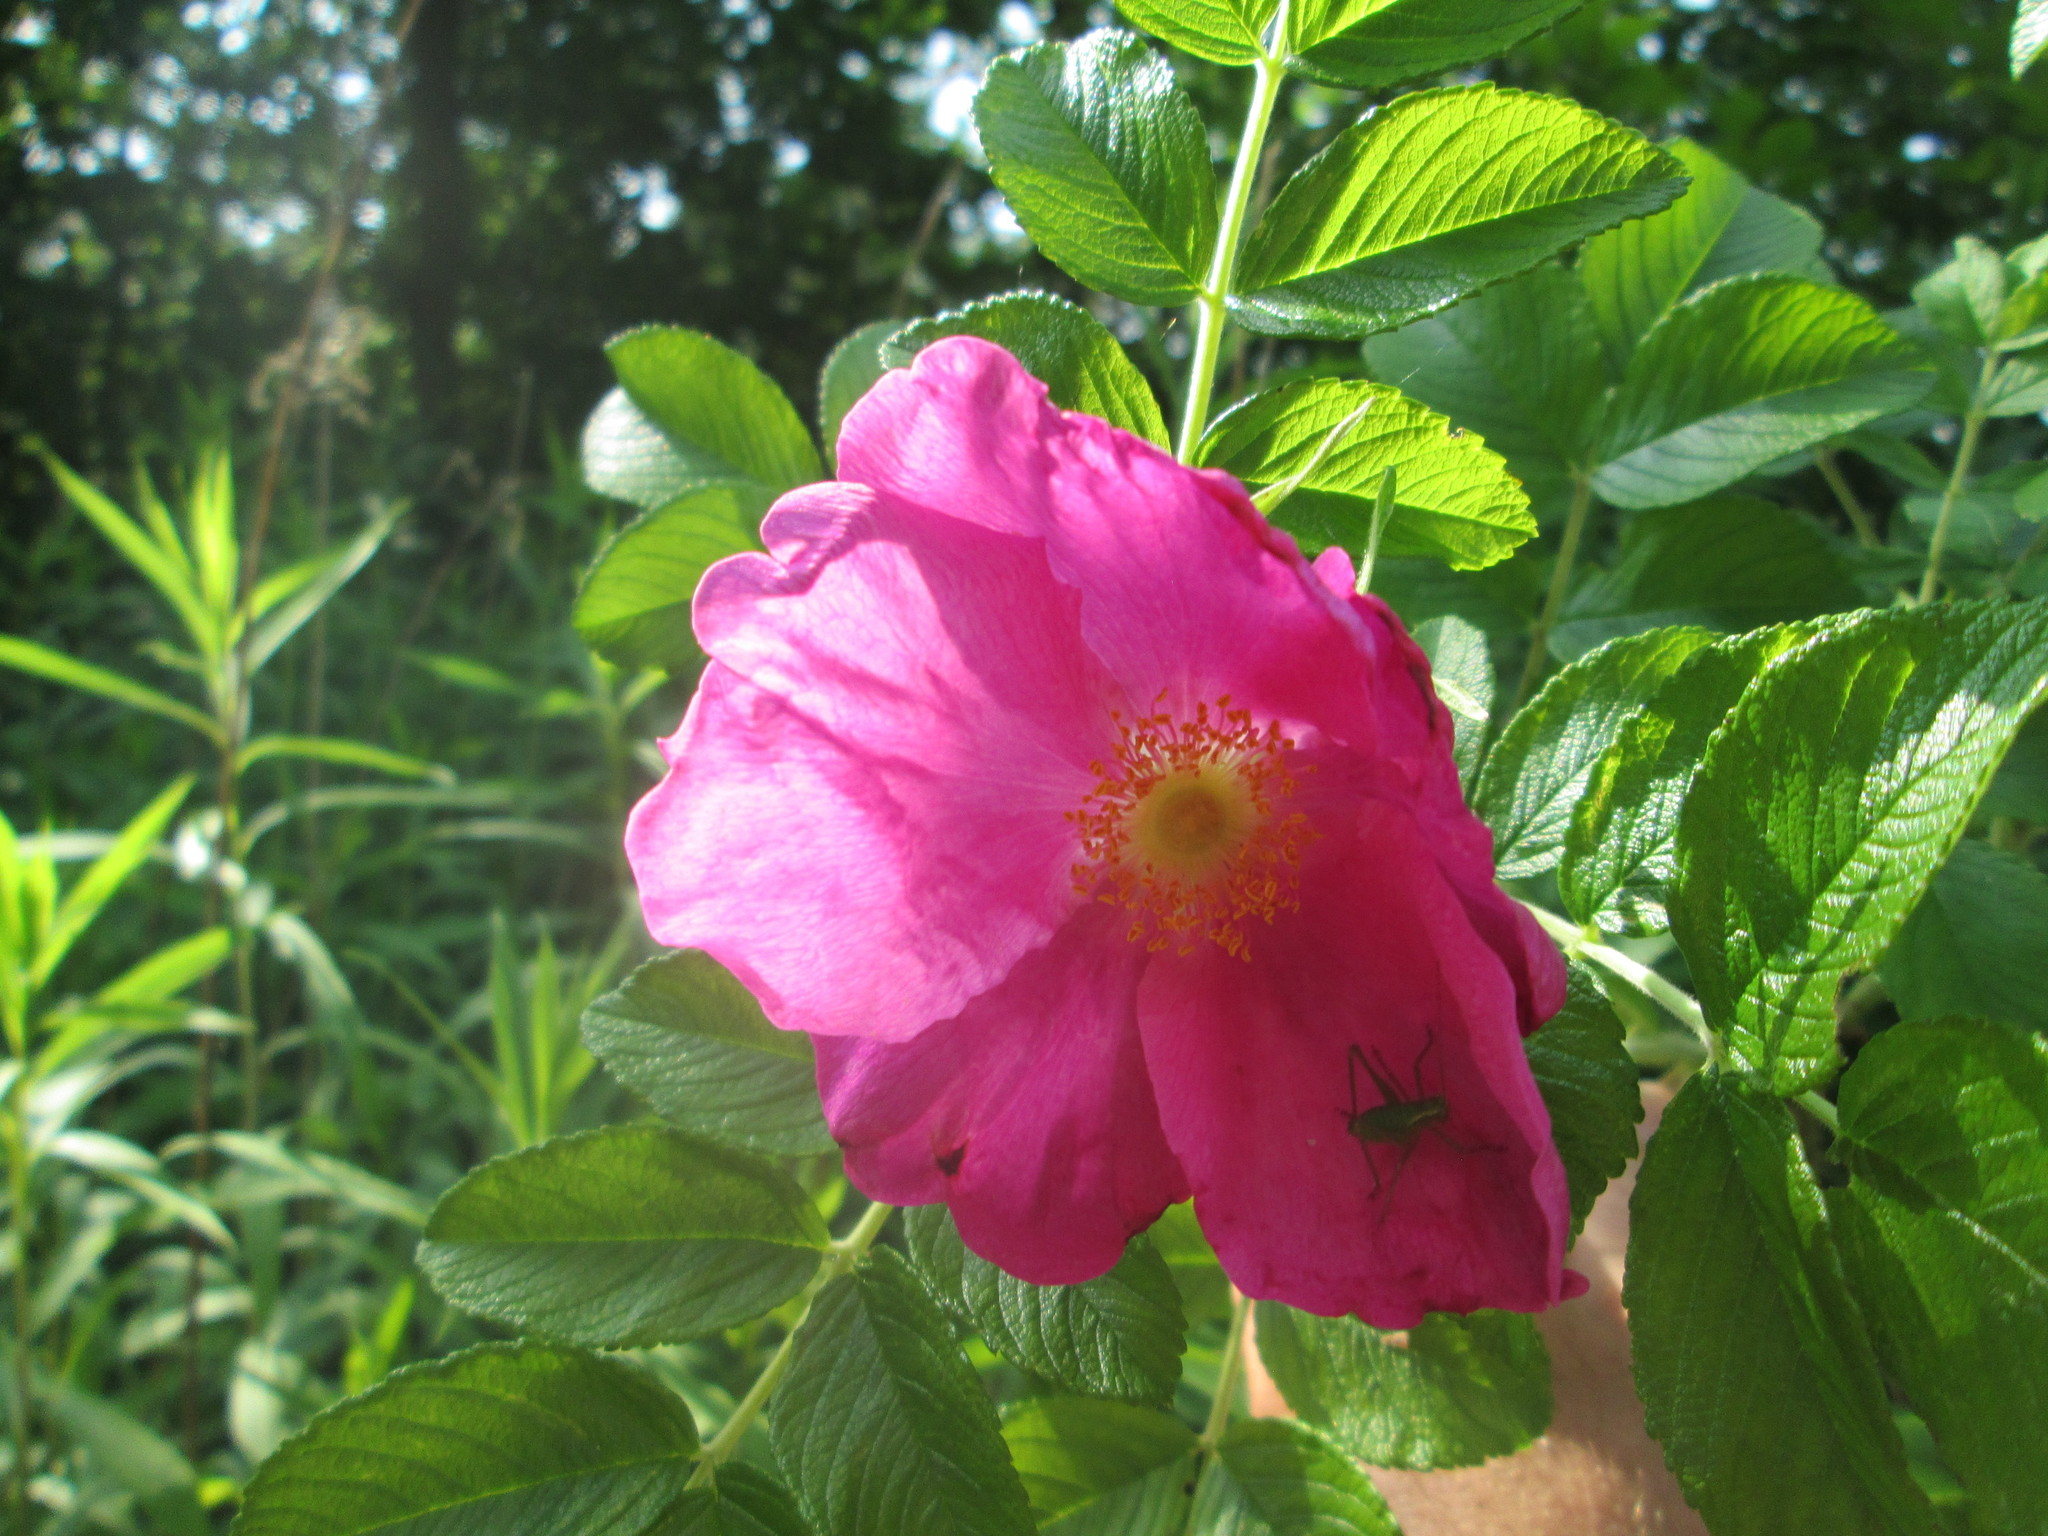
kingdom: Plantae
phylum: Tracheophyta
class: Magnoliopsida
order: Rosales
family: Rosaceae
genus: Rosa
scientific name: Rosa rugosa
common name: Japanese rose
